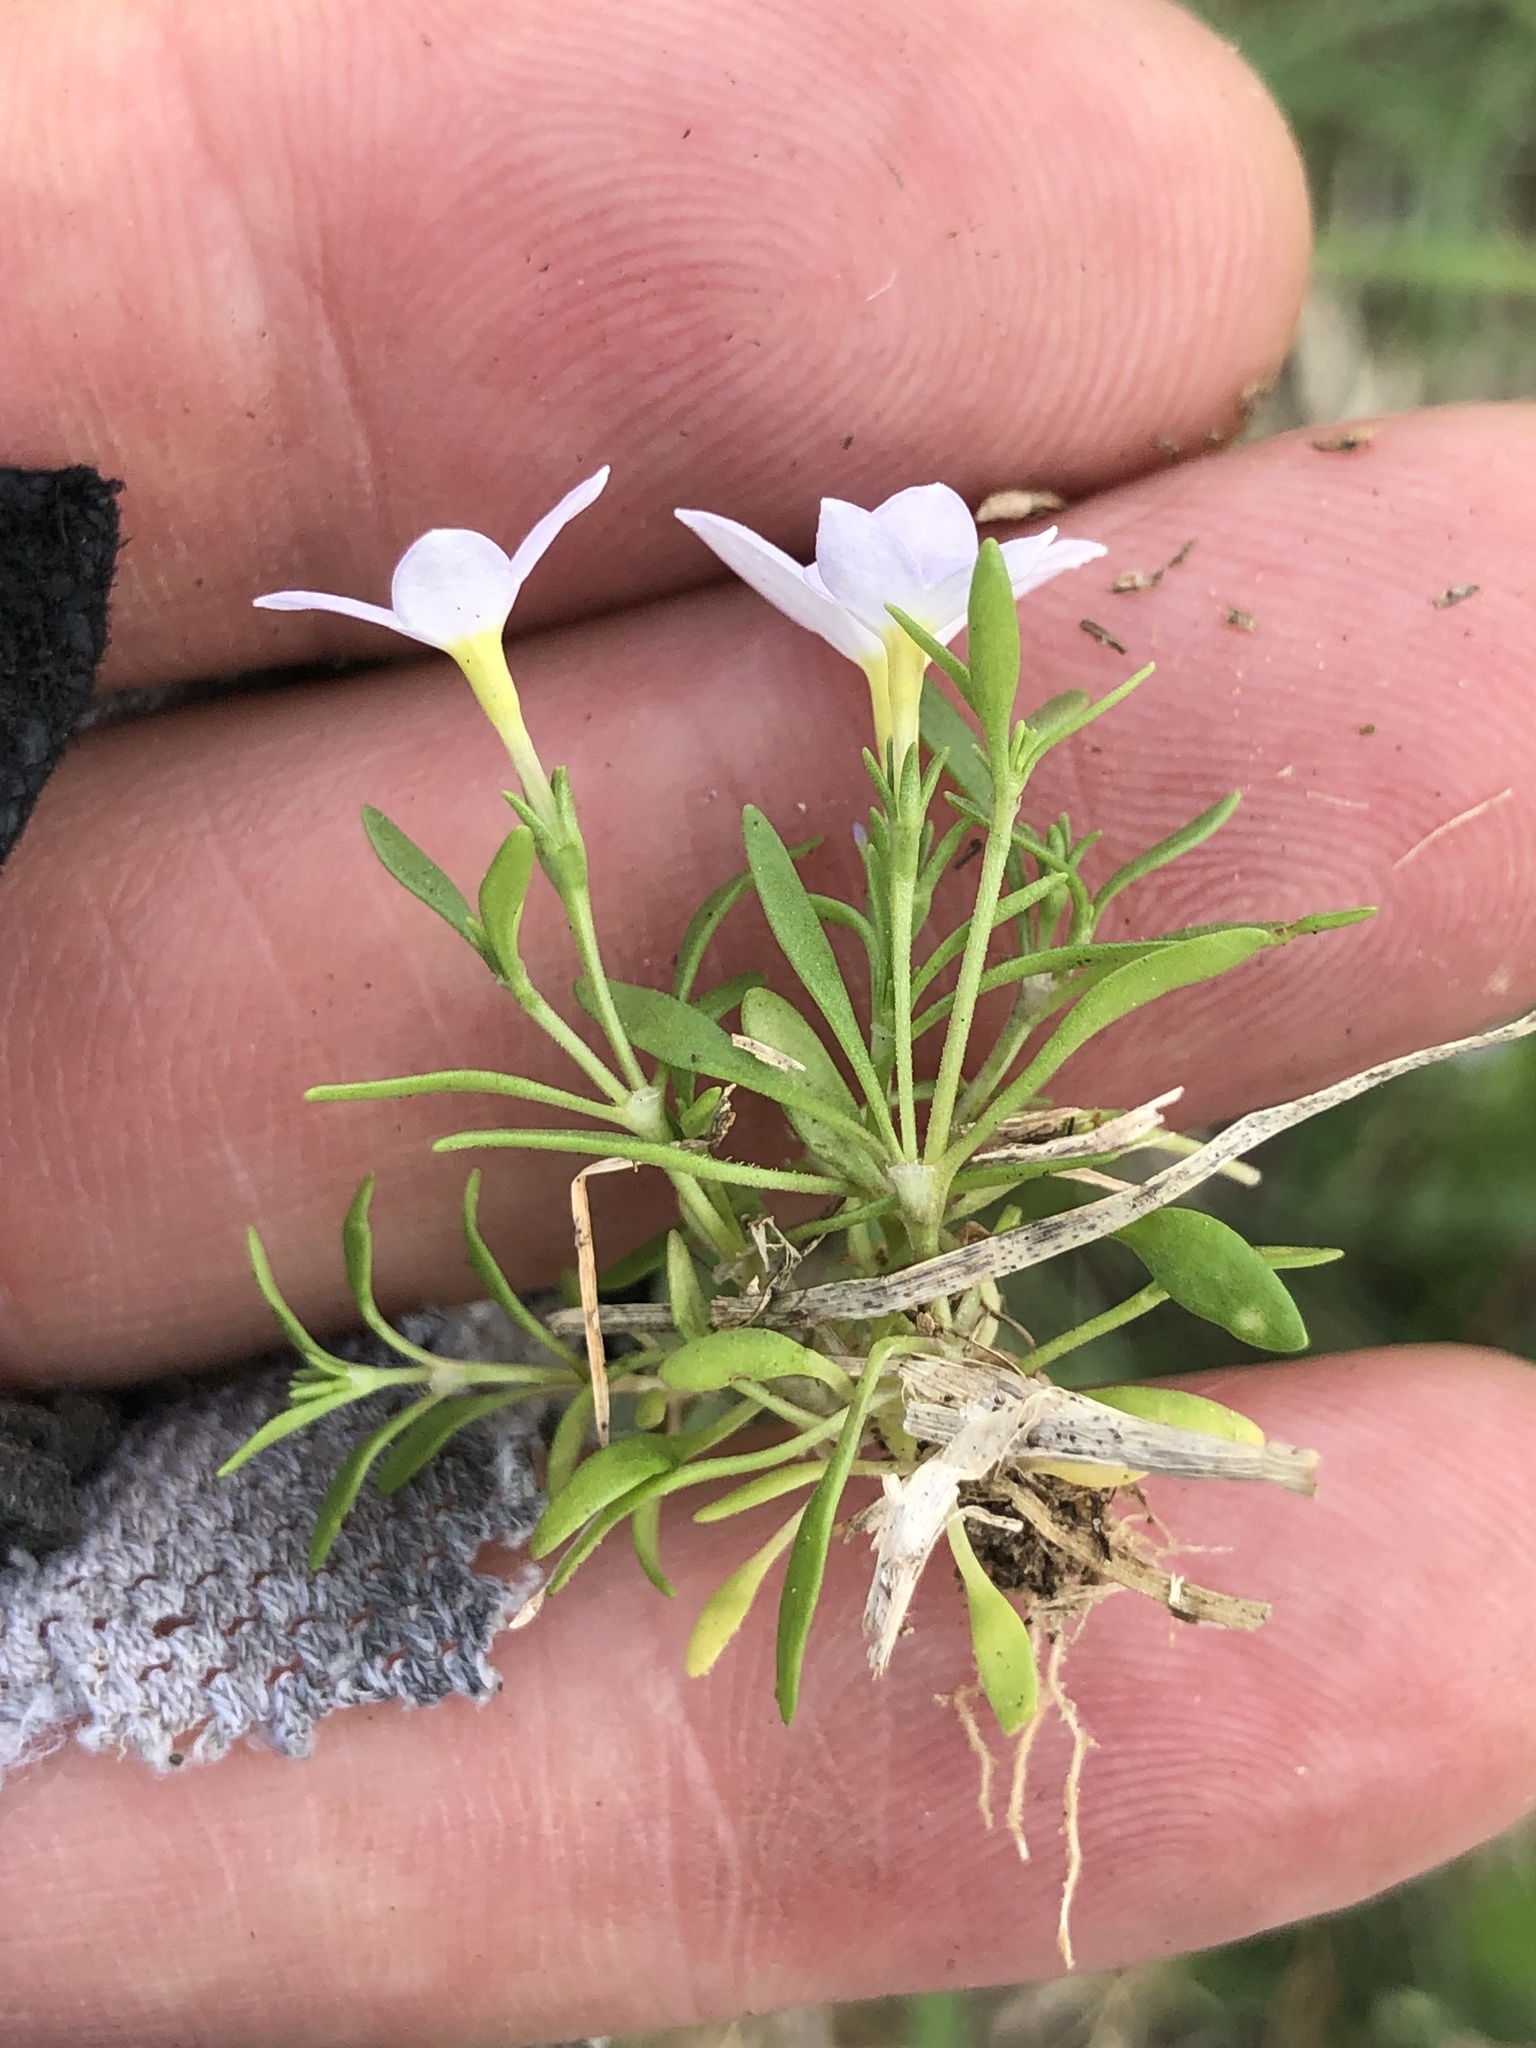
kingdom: Plantae
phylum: Tracheophyta
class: Magnoliopsida
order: Gentianales
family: Rubiaceae
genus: Houstonia
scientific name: Houstonia rosea
